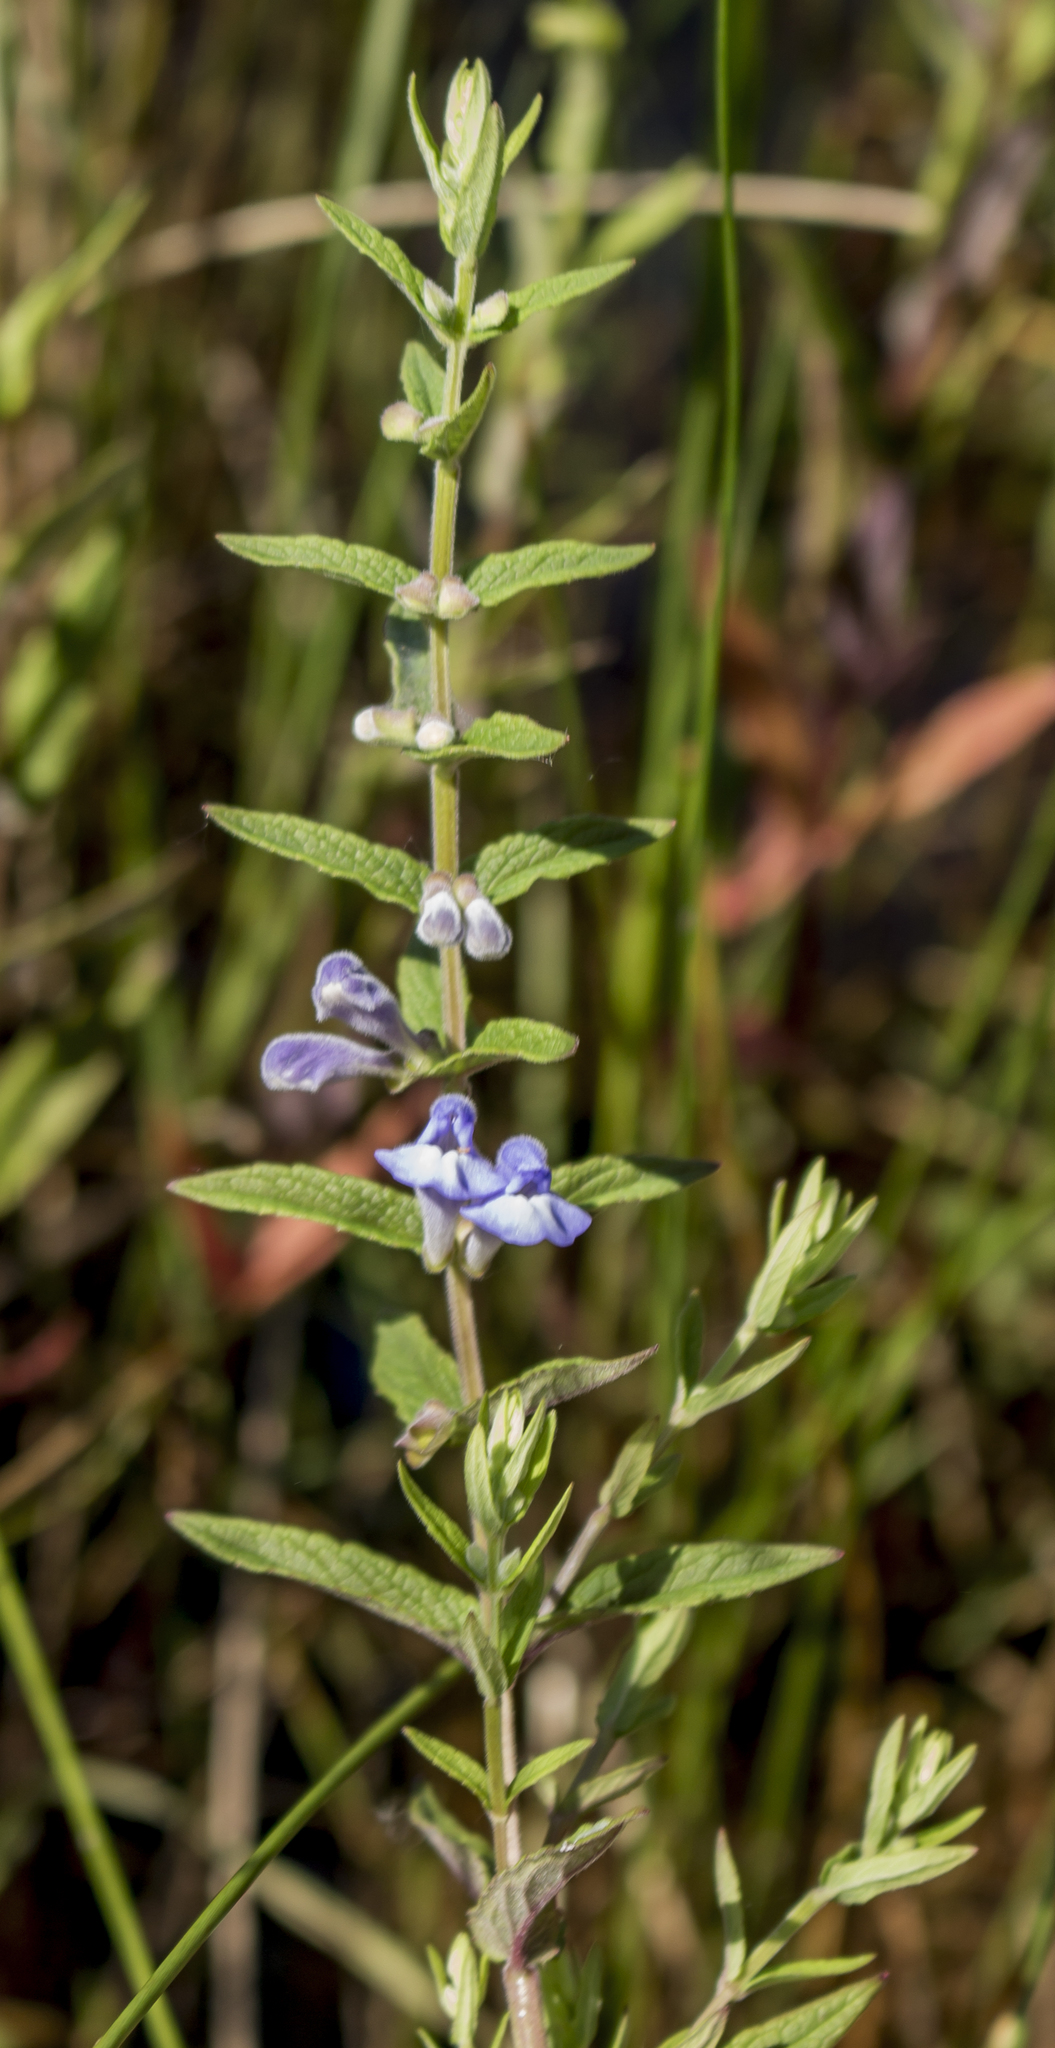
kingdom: Plantae
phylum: Tracheophyta
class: Magnoliopsida
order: Lamiales
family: Lamiaceae
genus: Scutellaria
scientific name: Scutellaria galericulata
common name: Skullcap
